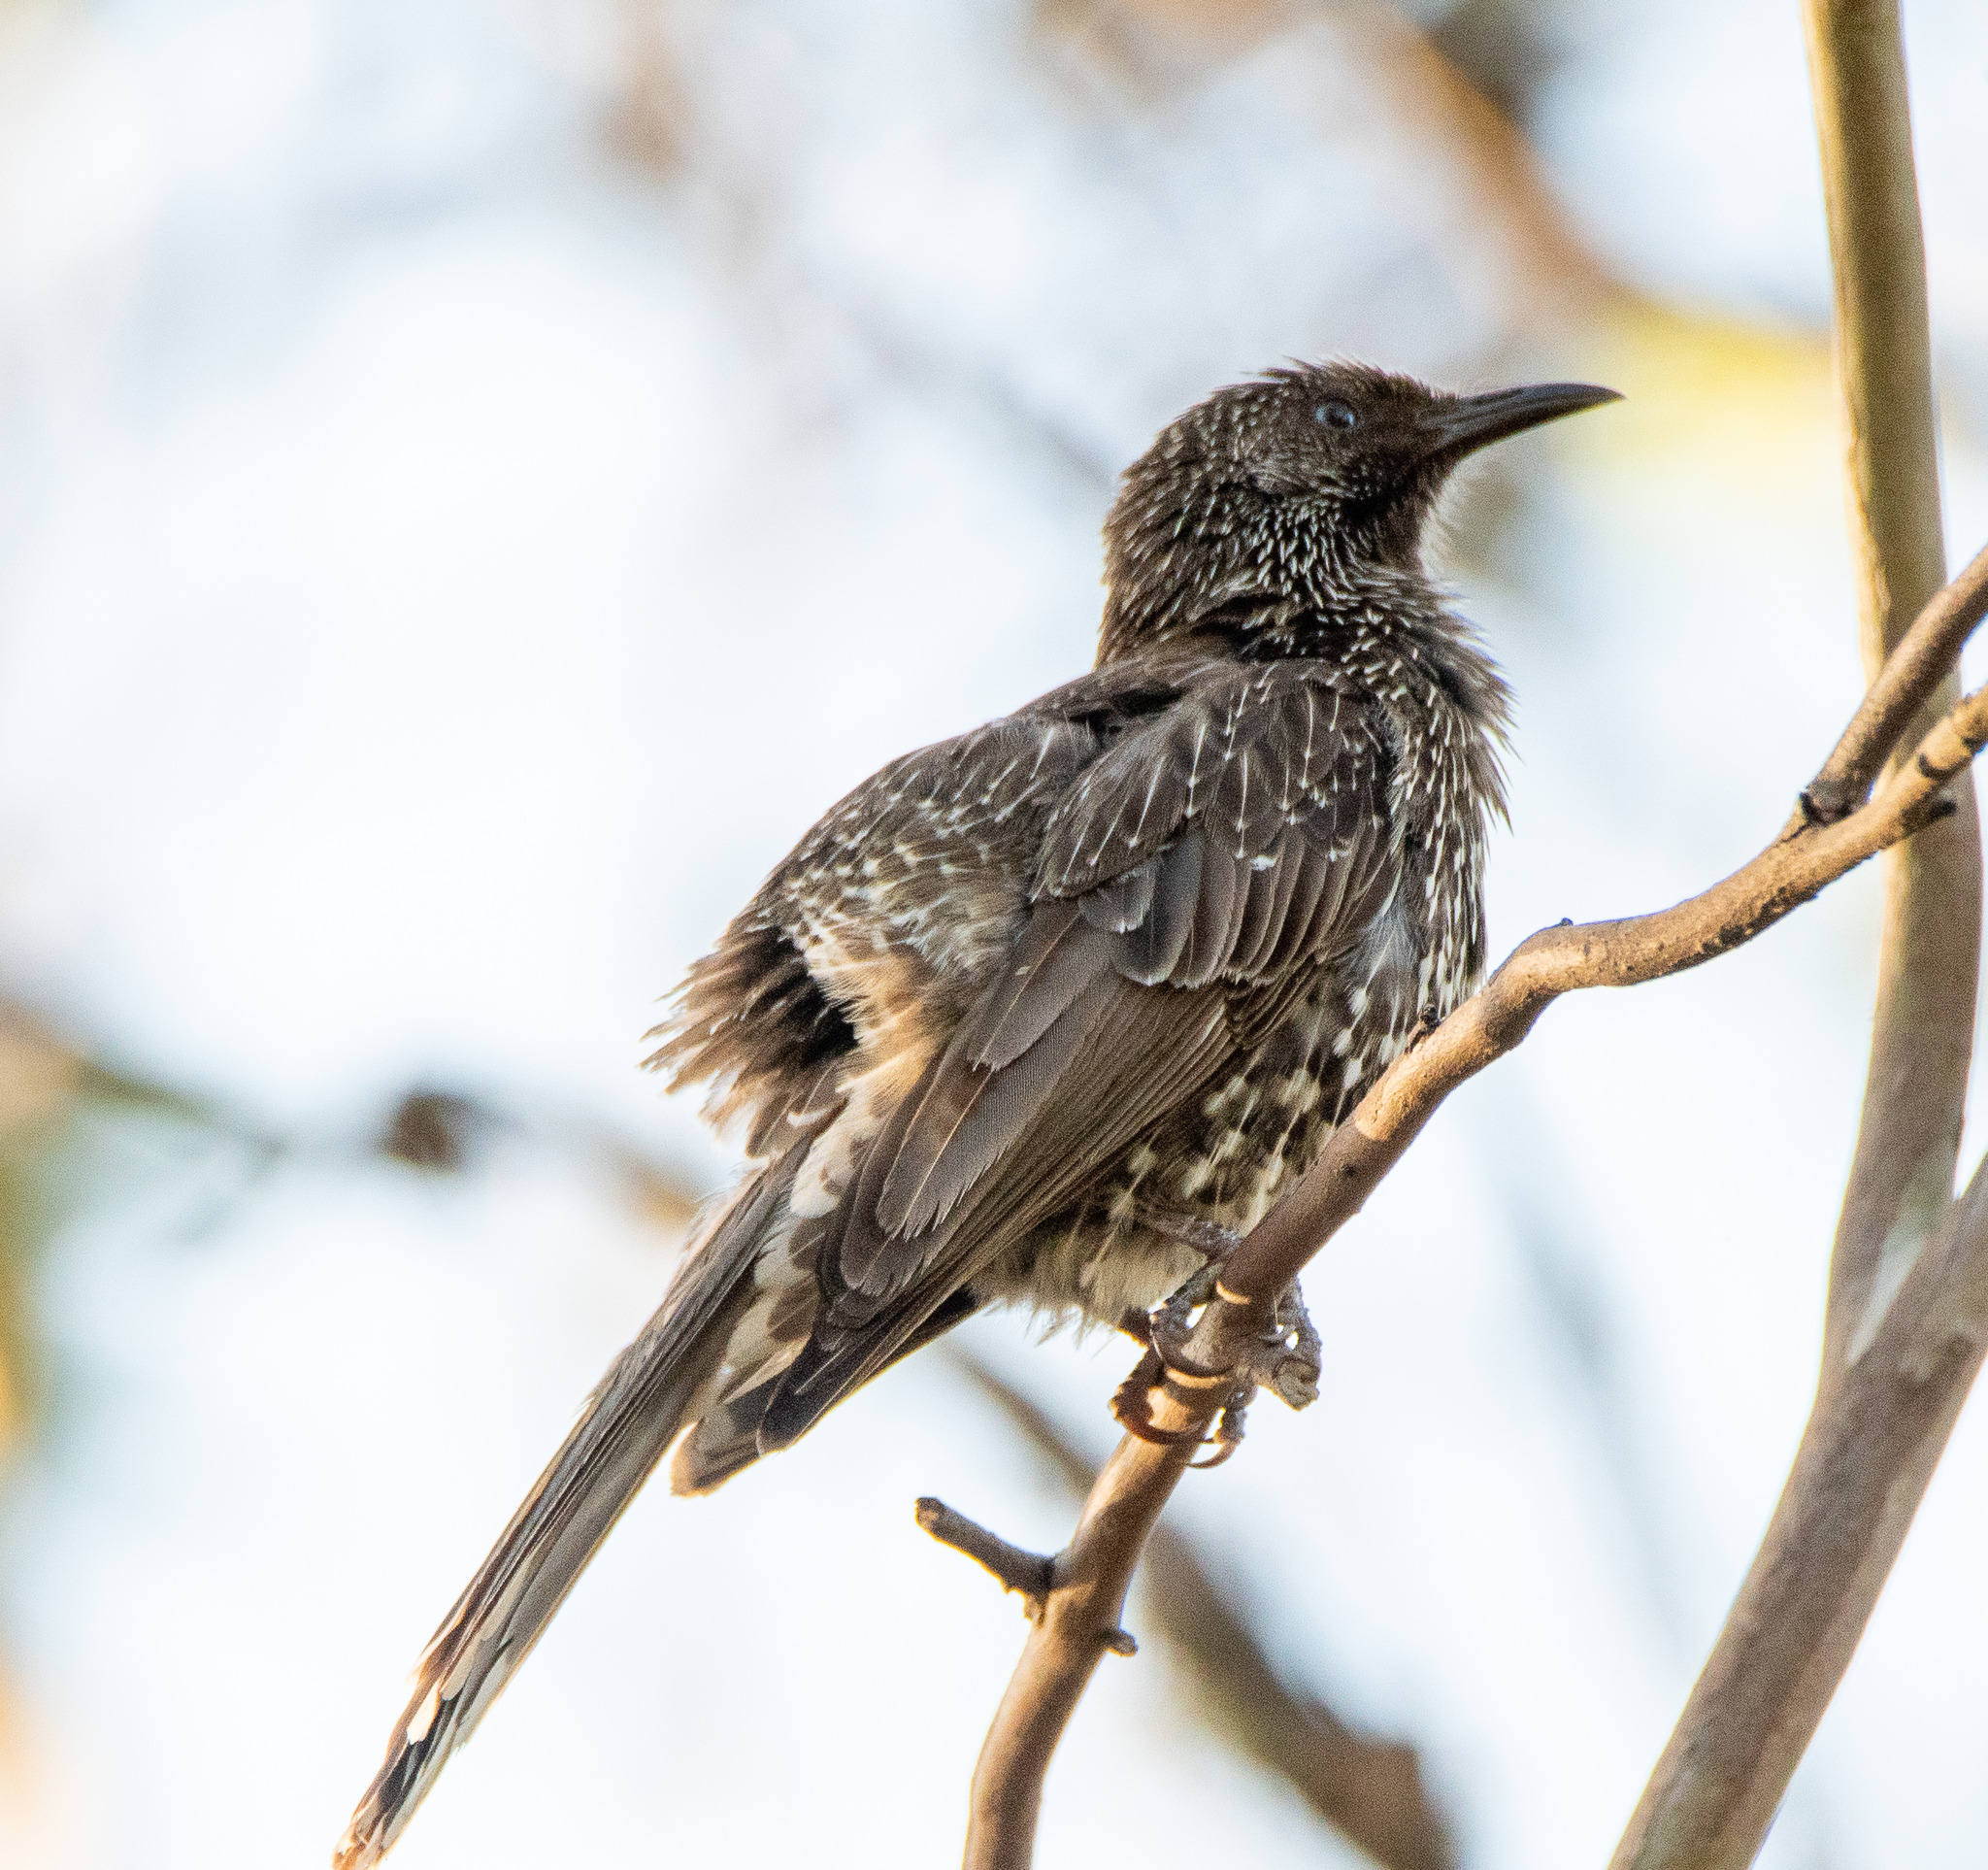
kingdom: Animalia
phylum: Chordata
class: Aves
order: Passeriformes
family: Meliphagidae
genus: Anthochaera
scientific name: Anthochaera chrysoptera
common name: Little wattlebird
